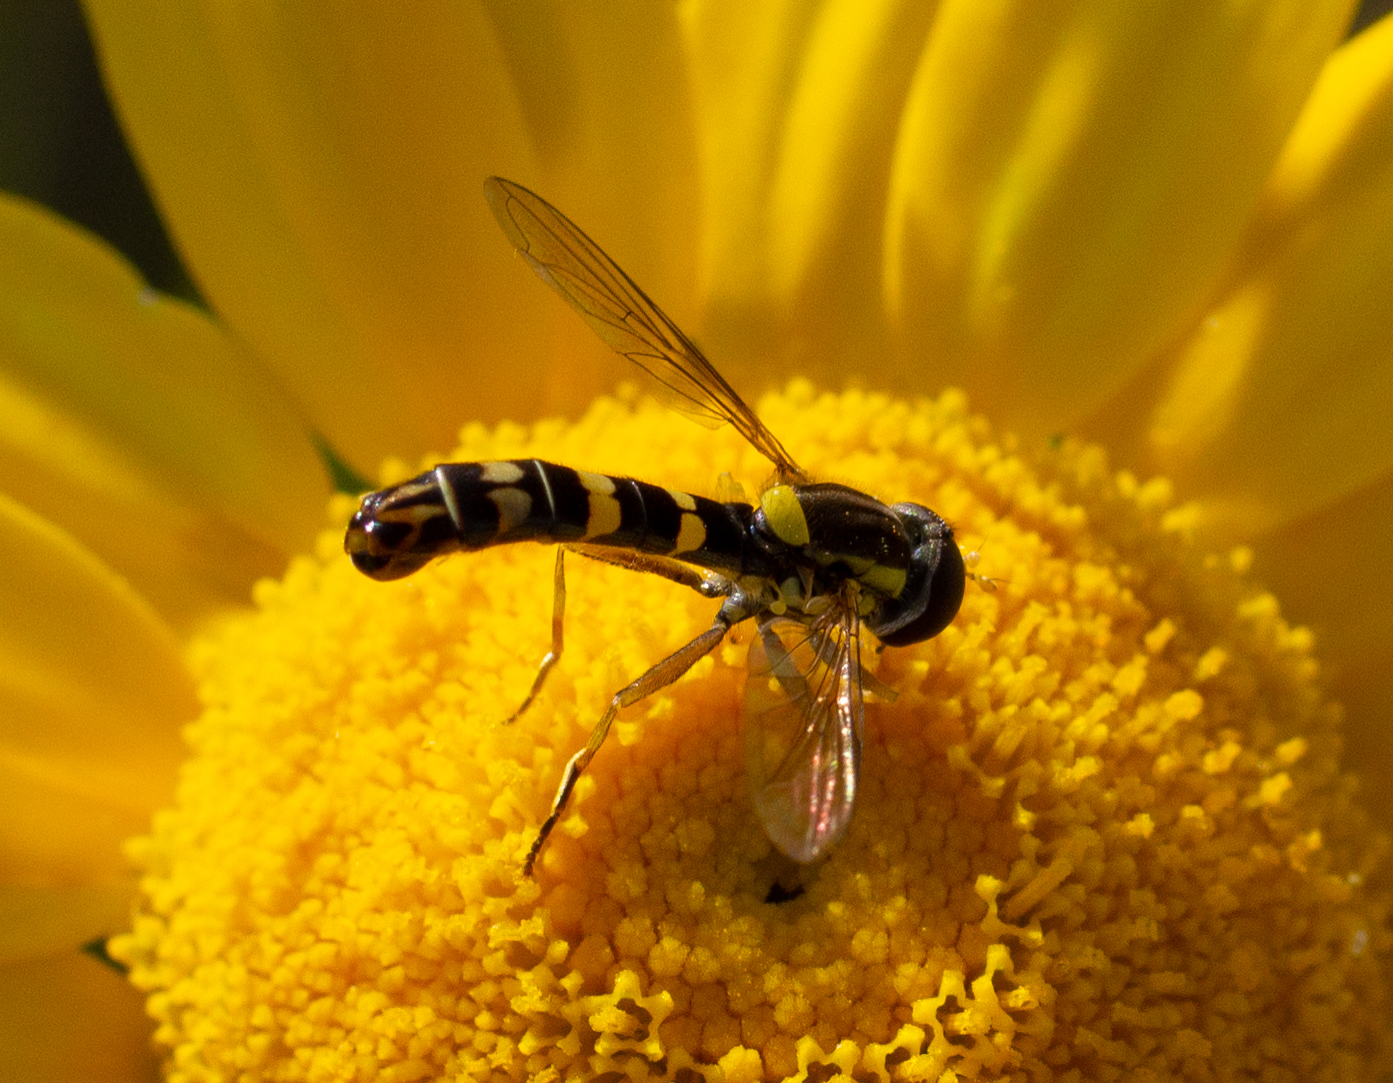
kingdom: Animalia
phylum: Arthropoda
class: Insecta
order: Diptera
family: Syrphidae
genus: Sphaerophoria
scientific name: Sphaerophoria scripta
